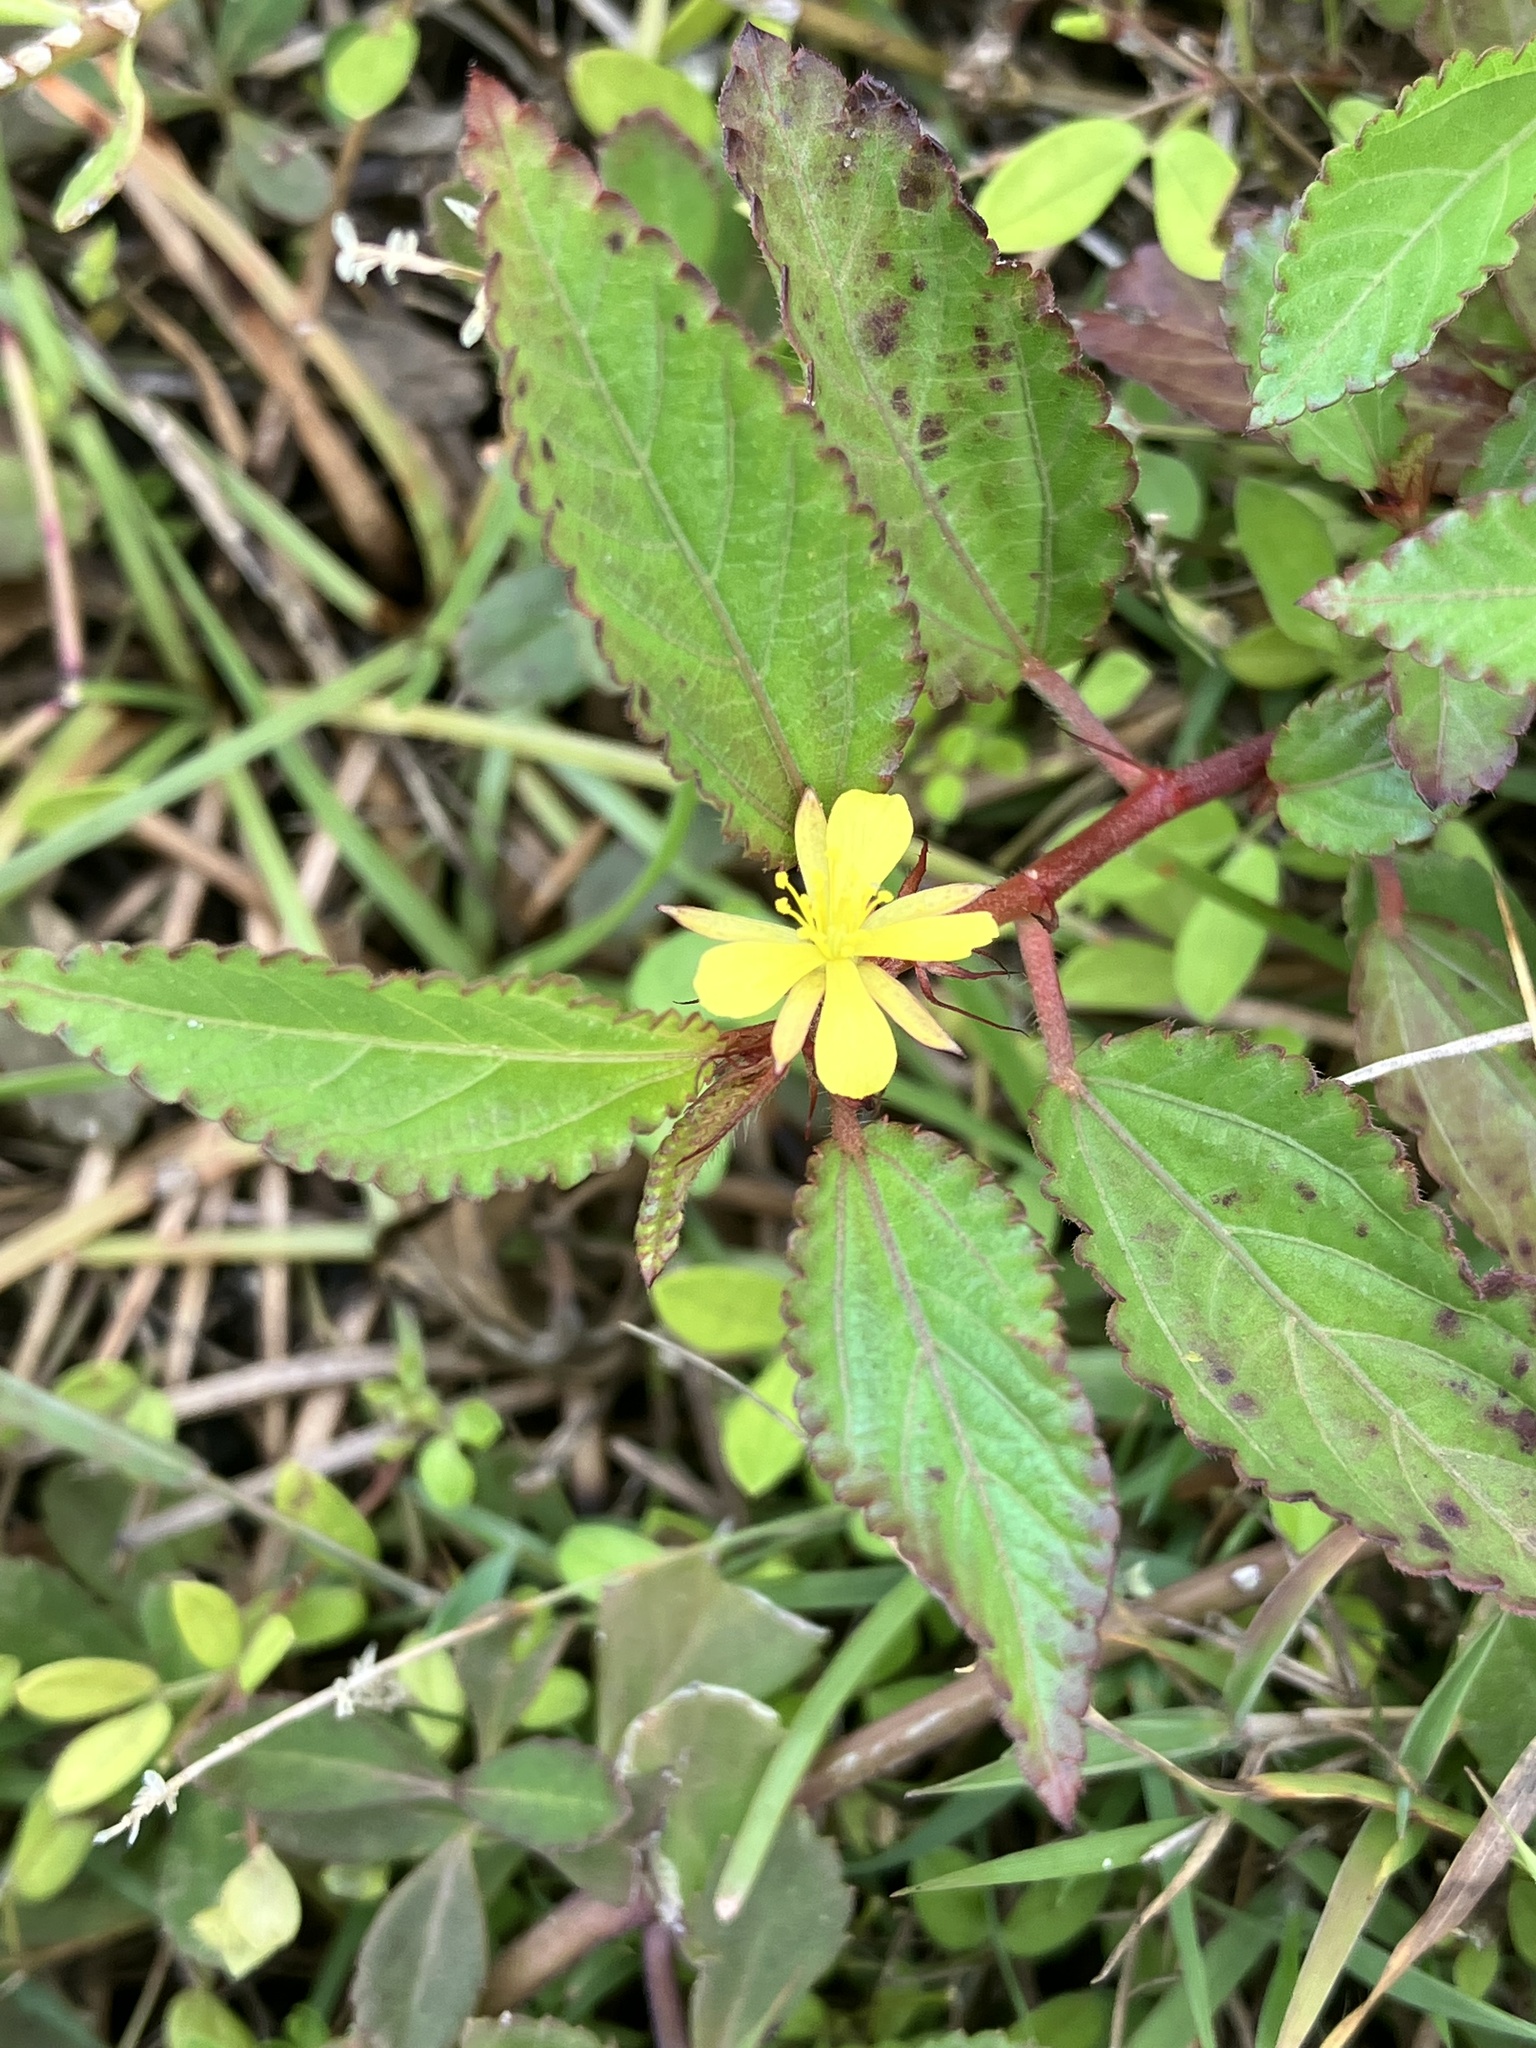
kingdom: Plantae
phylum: Tracheophyta
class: Magnoliopsida
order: Malvales
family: Malvaceae
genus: Corchorus
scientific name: Corchorus aestuans
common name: Jute
